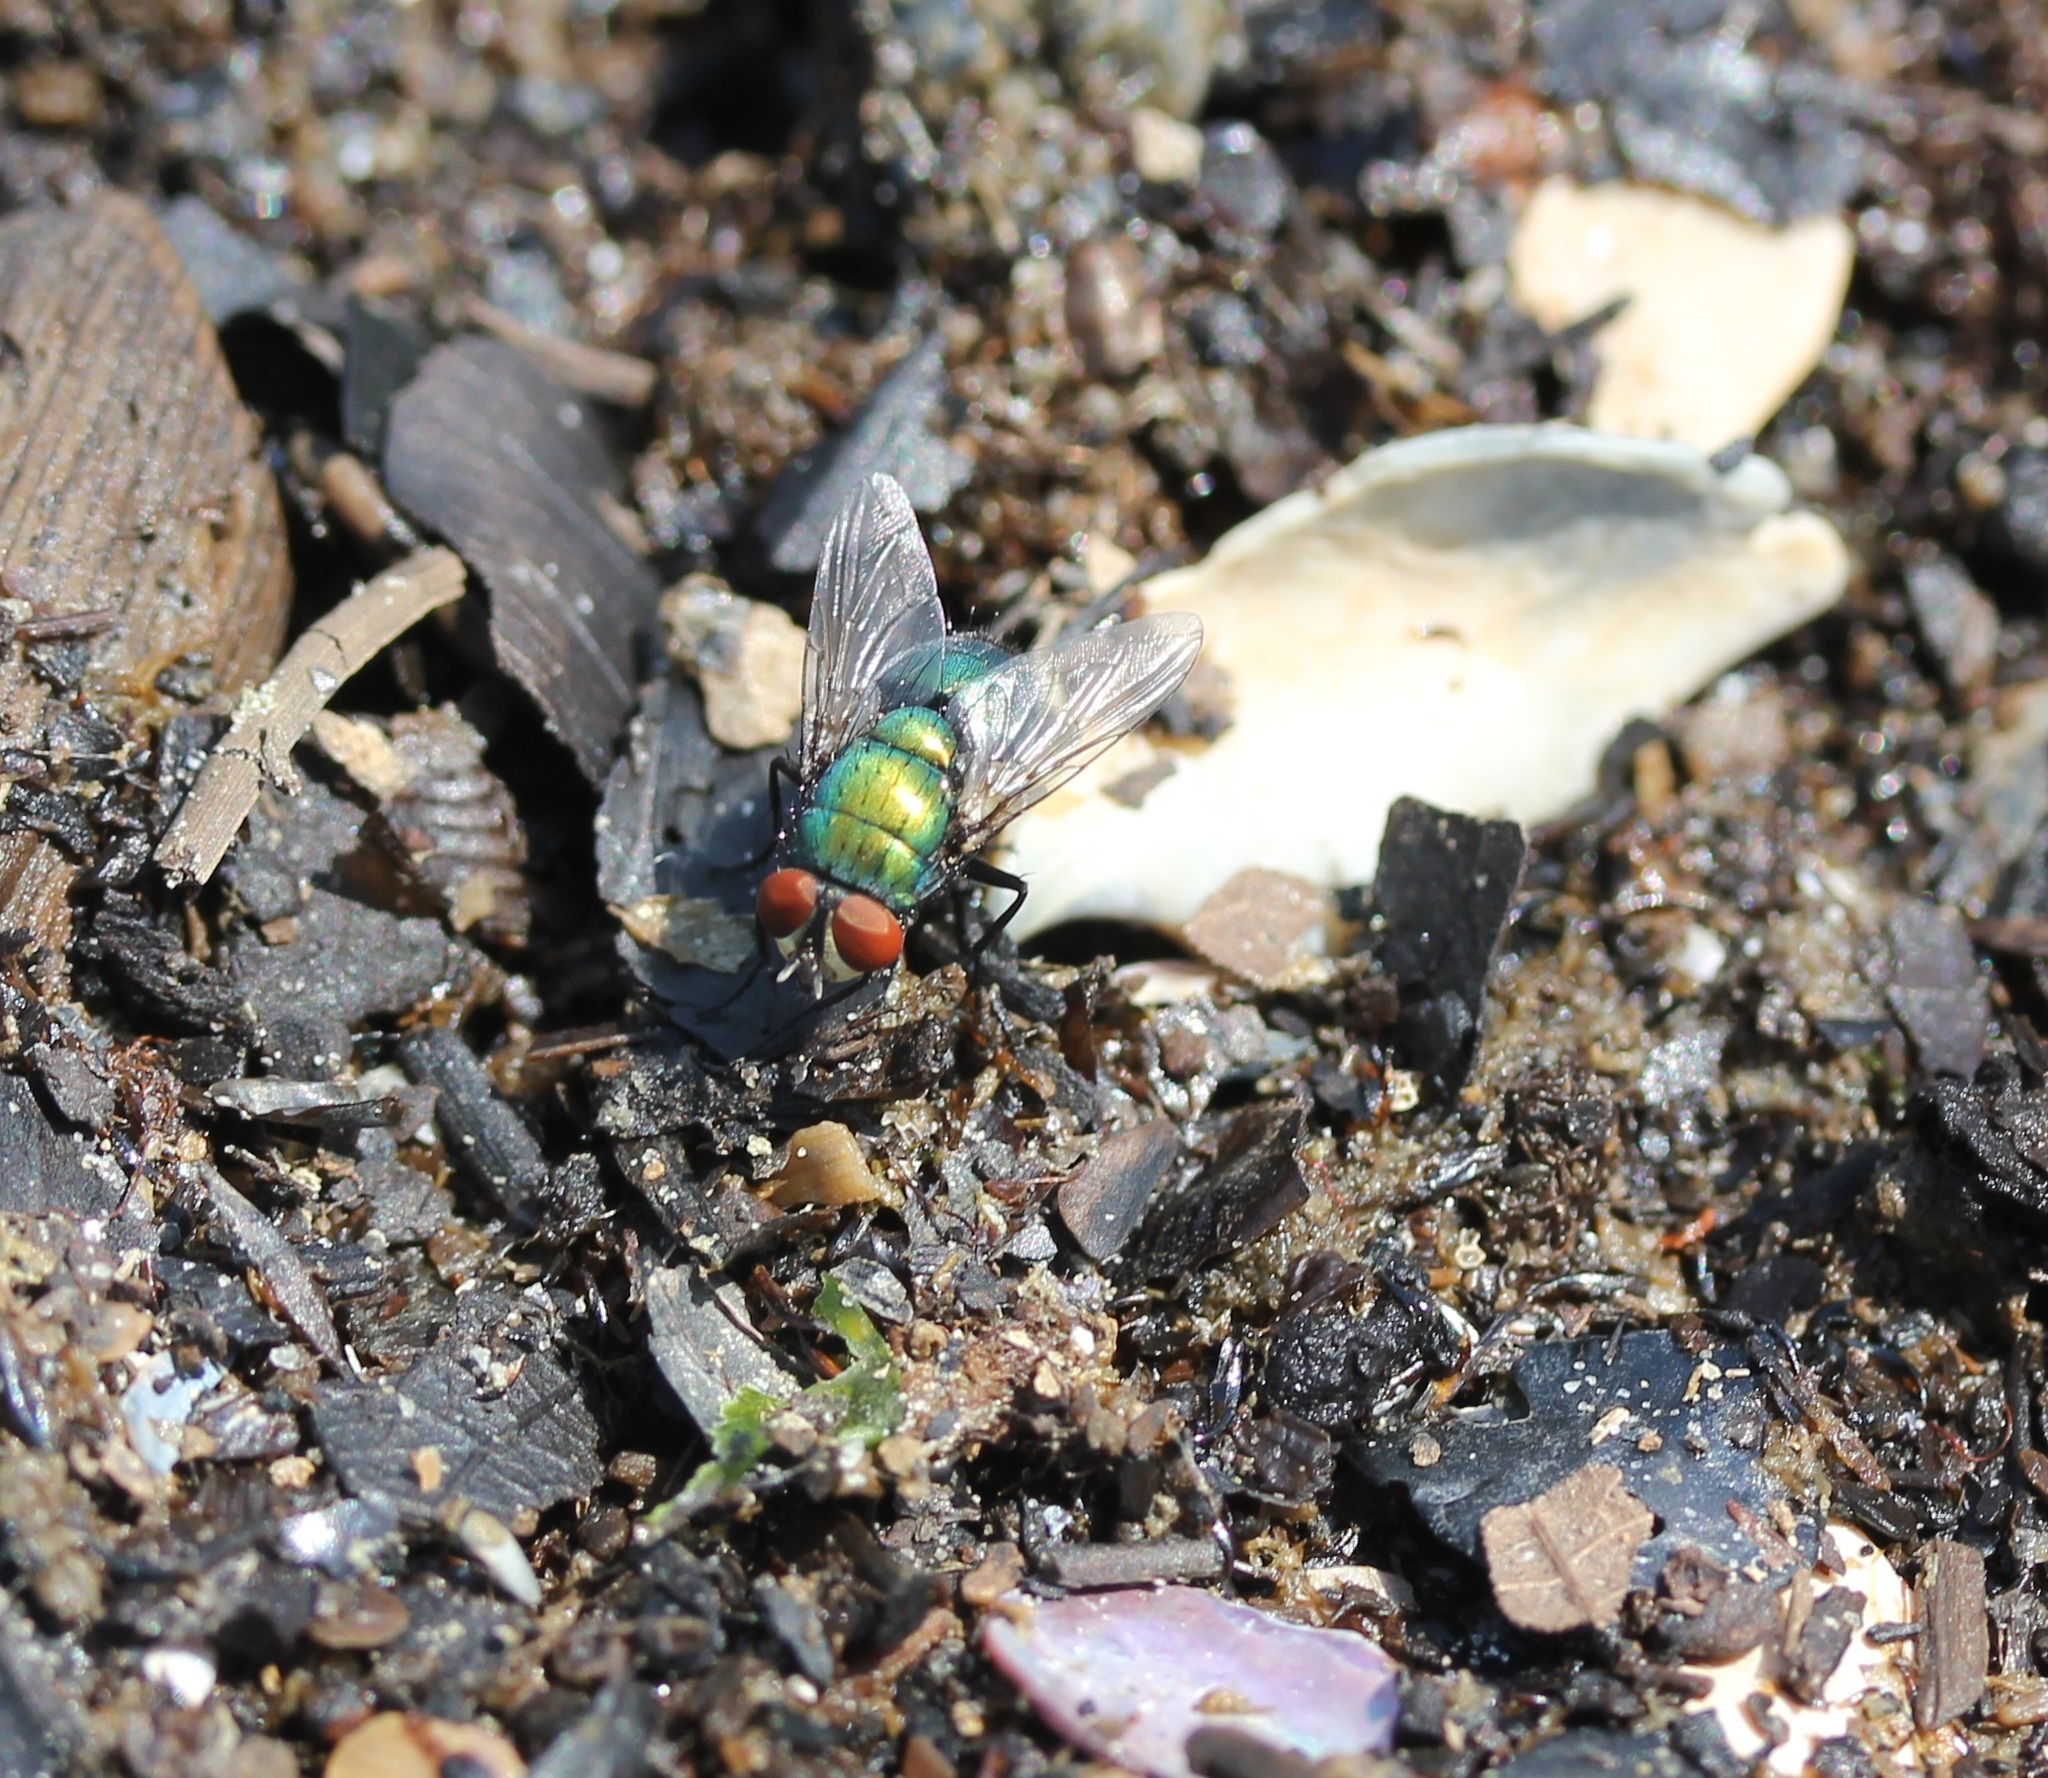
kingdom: Animalia
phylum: Arthropoda
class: Insecta
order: Diptera
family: Calliphoridae
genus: Lucilia
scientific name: Lucilia sericata
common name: Blow fly
